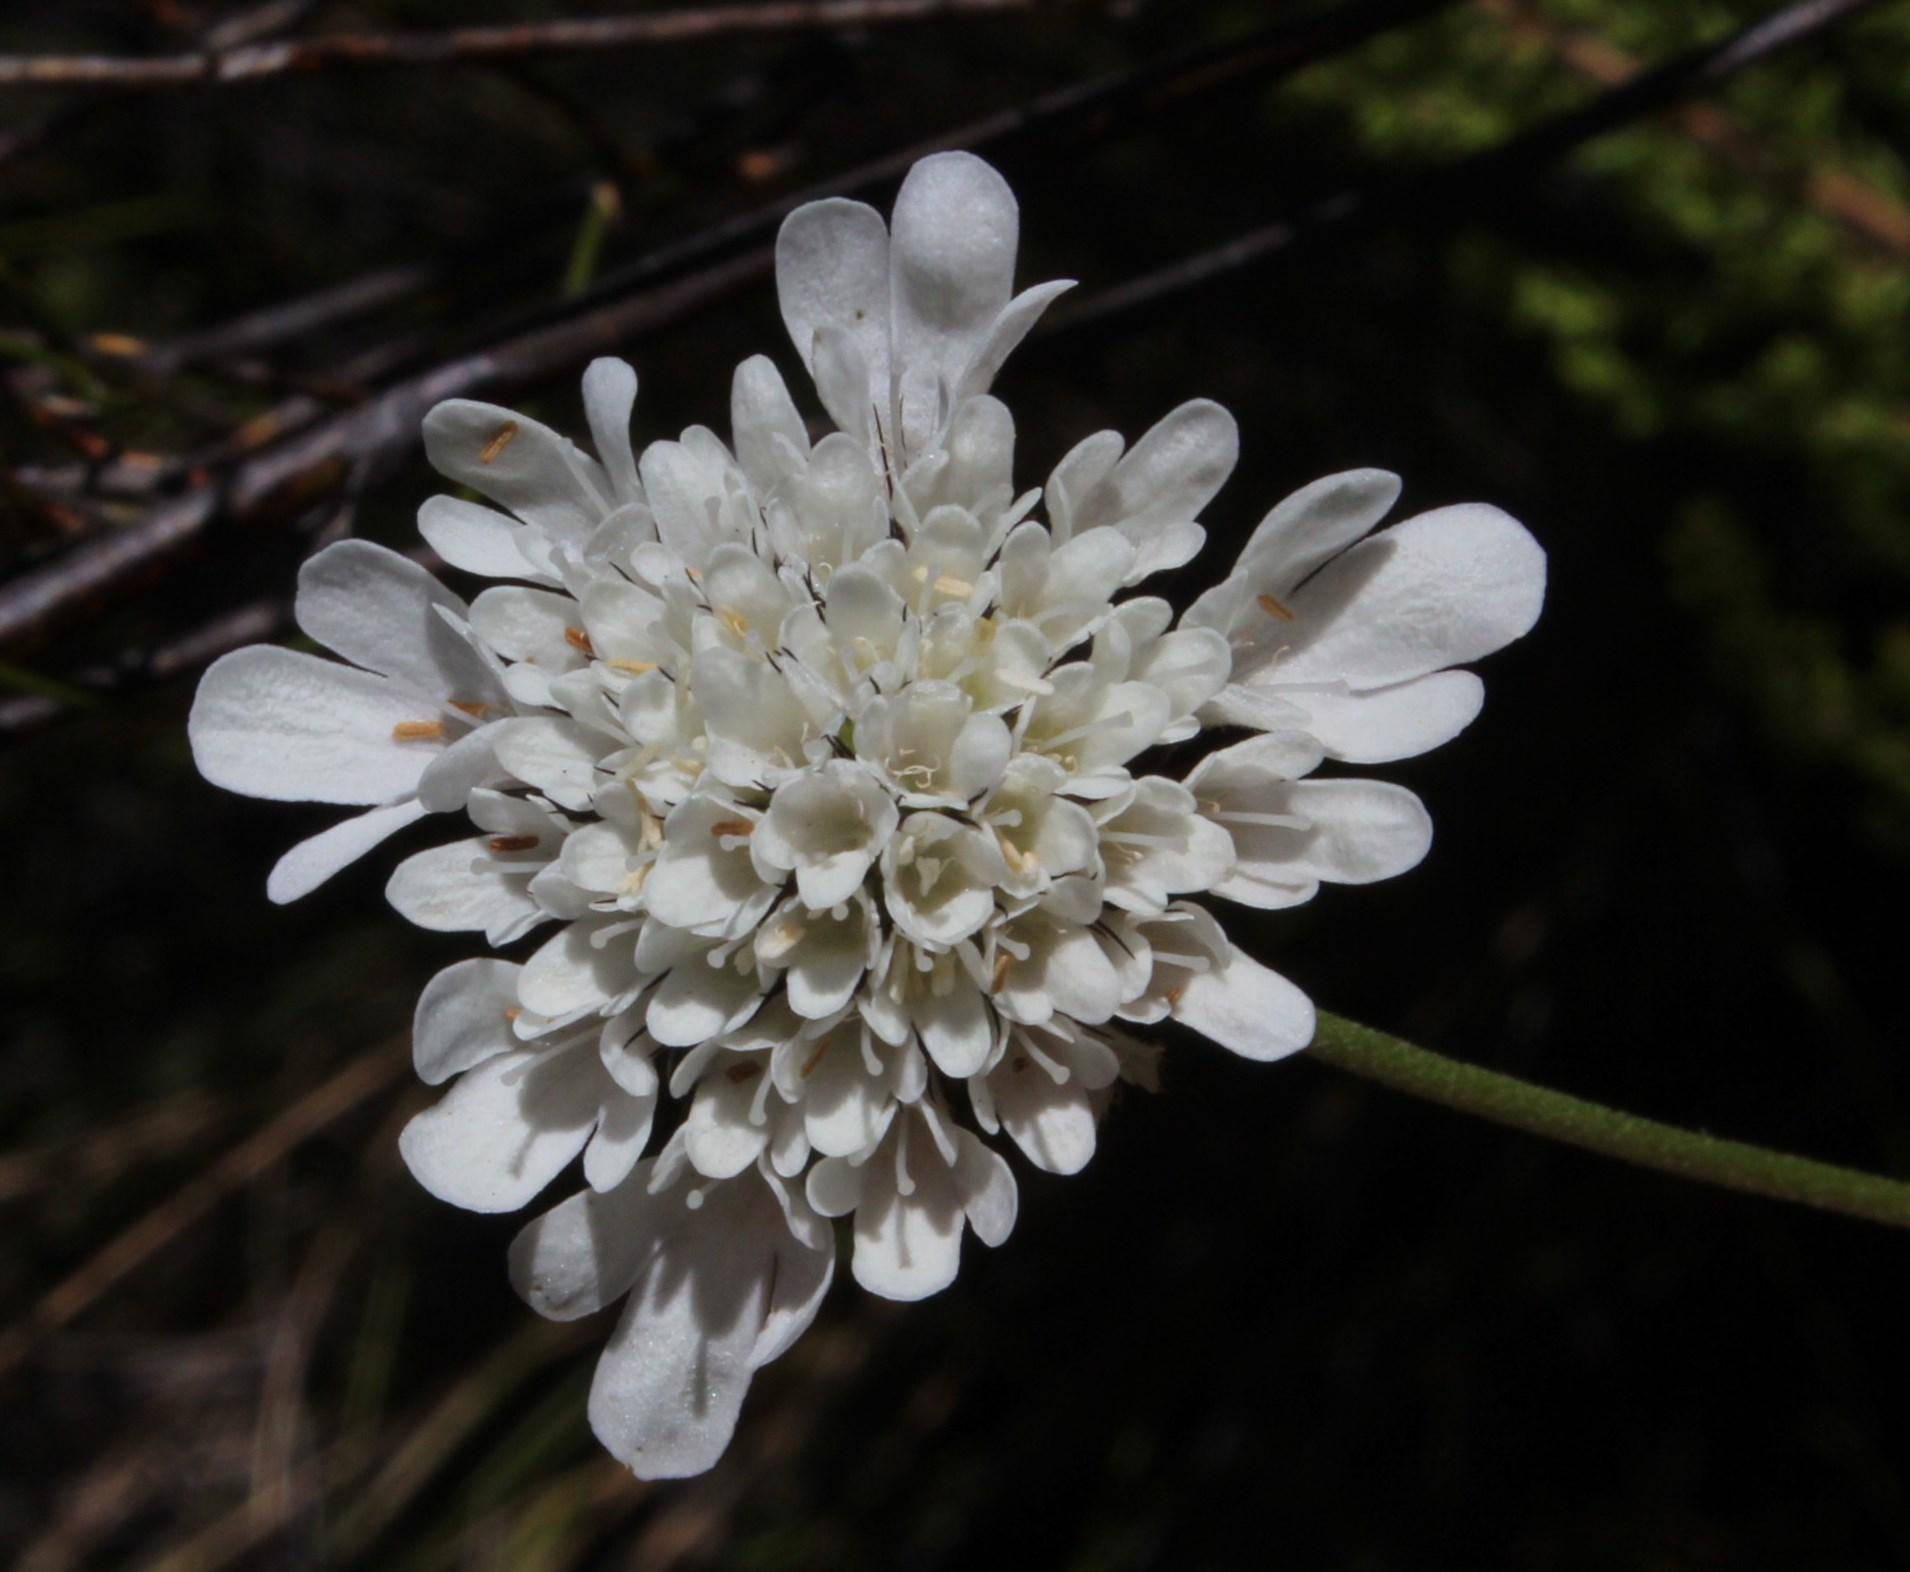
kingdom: Plantae
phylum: Tracheophyta
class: Magnoliopsida
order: Dipsacales
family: Caprifoliaceae
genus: Scabiosa
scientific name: Scabiosa columbaria
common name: Small scabious
